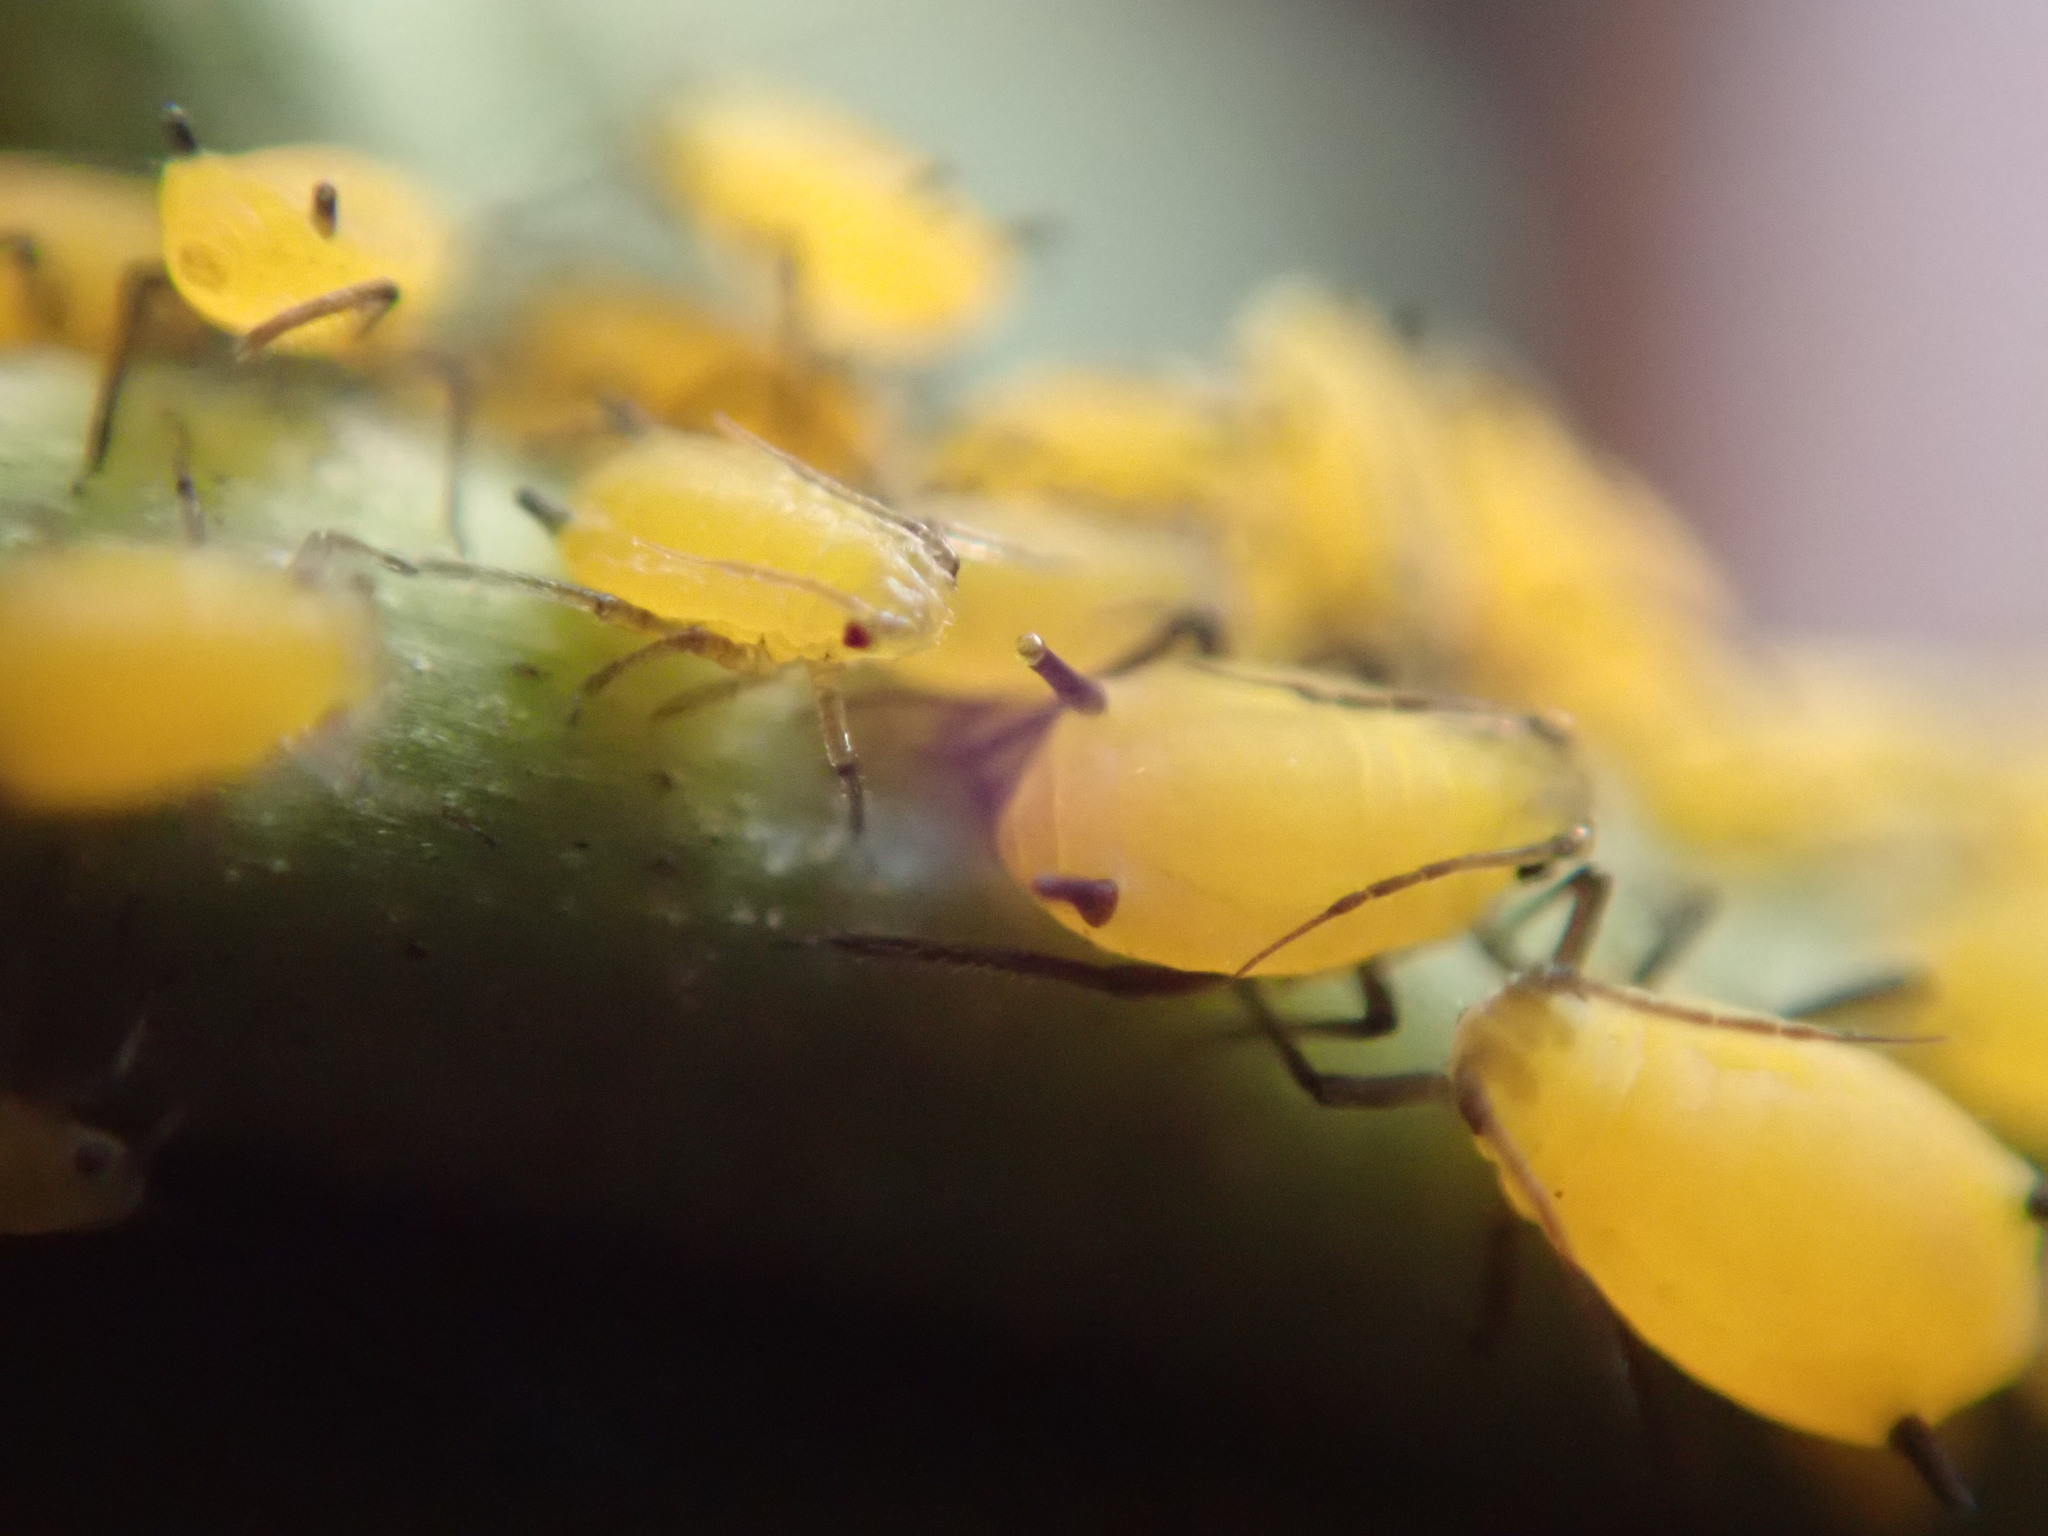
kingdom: Animalia
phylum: Arthropoda
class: Insecta
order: Hemiptera
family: Aphididae
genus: Aphis
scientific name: Aphis nerii
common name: Oleander aphid
